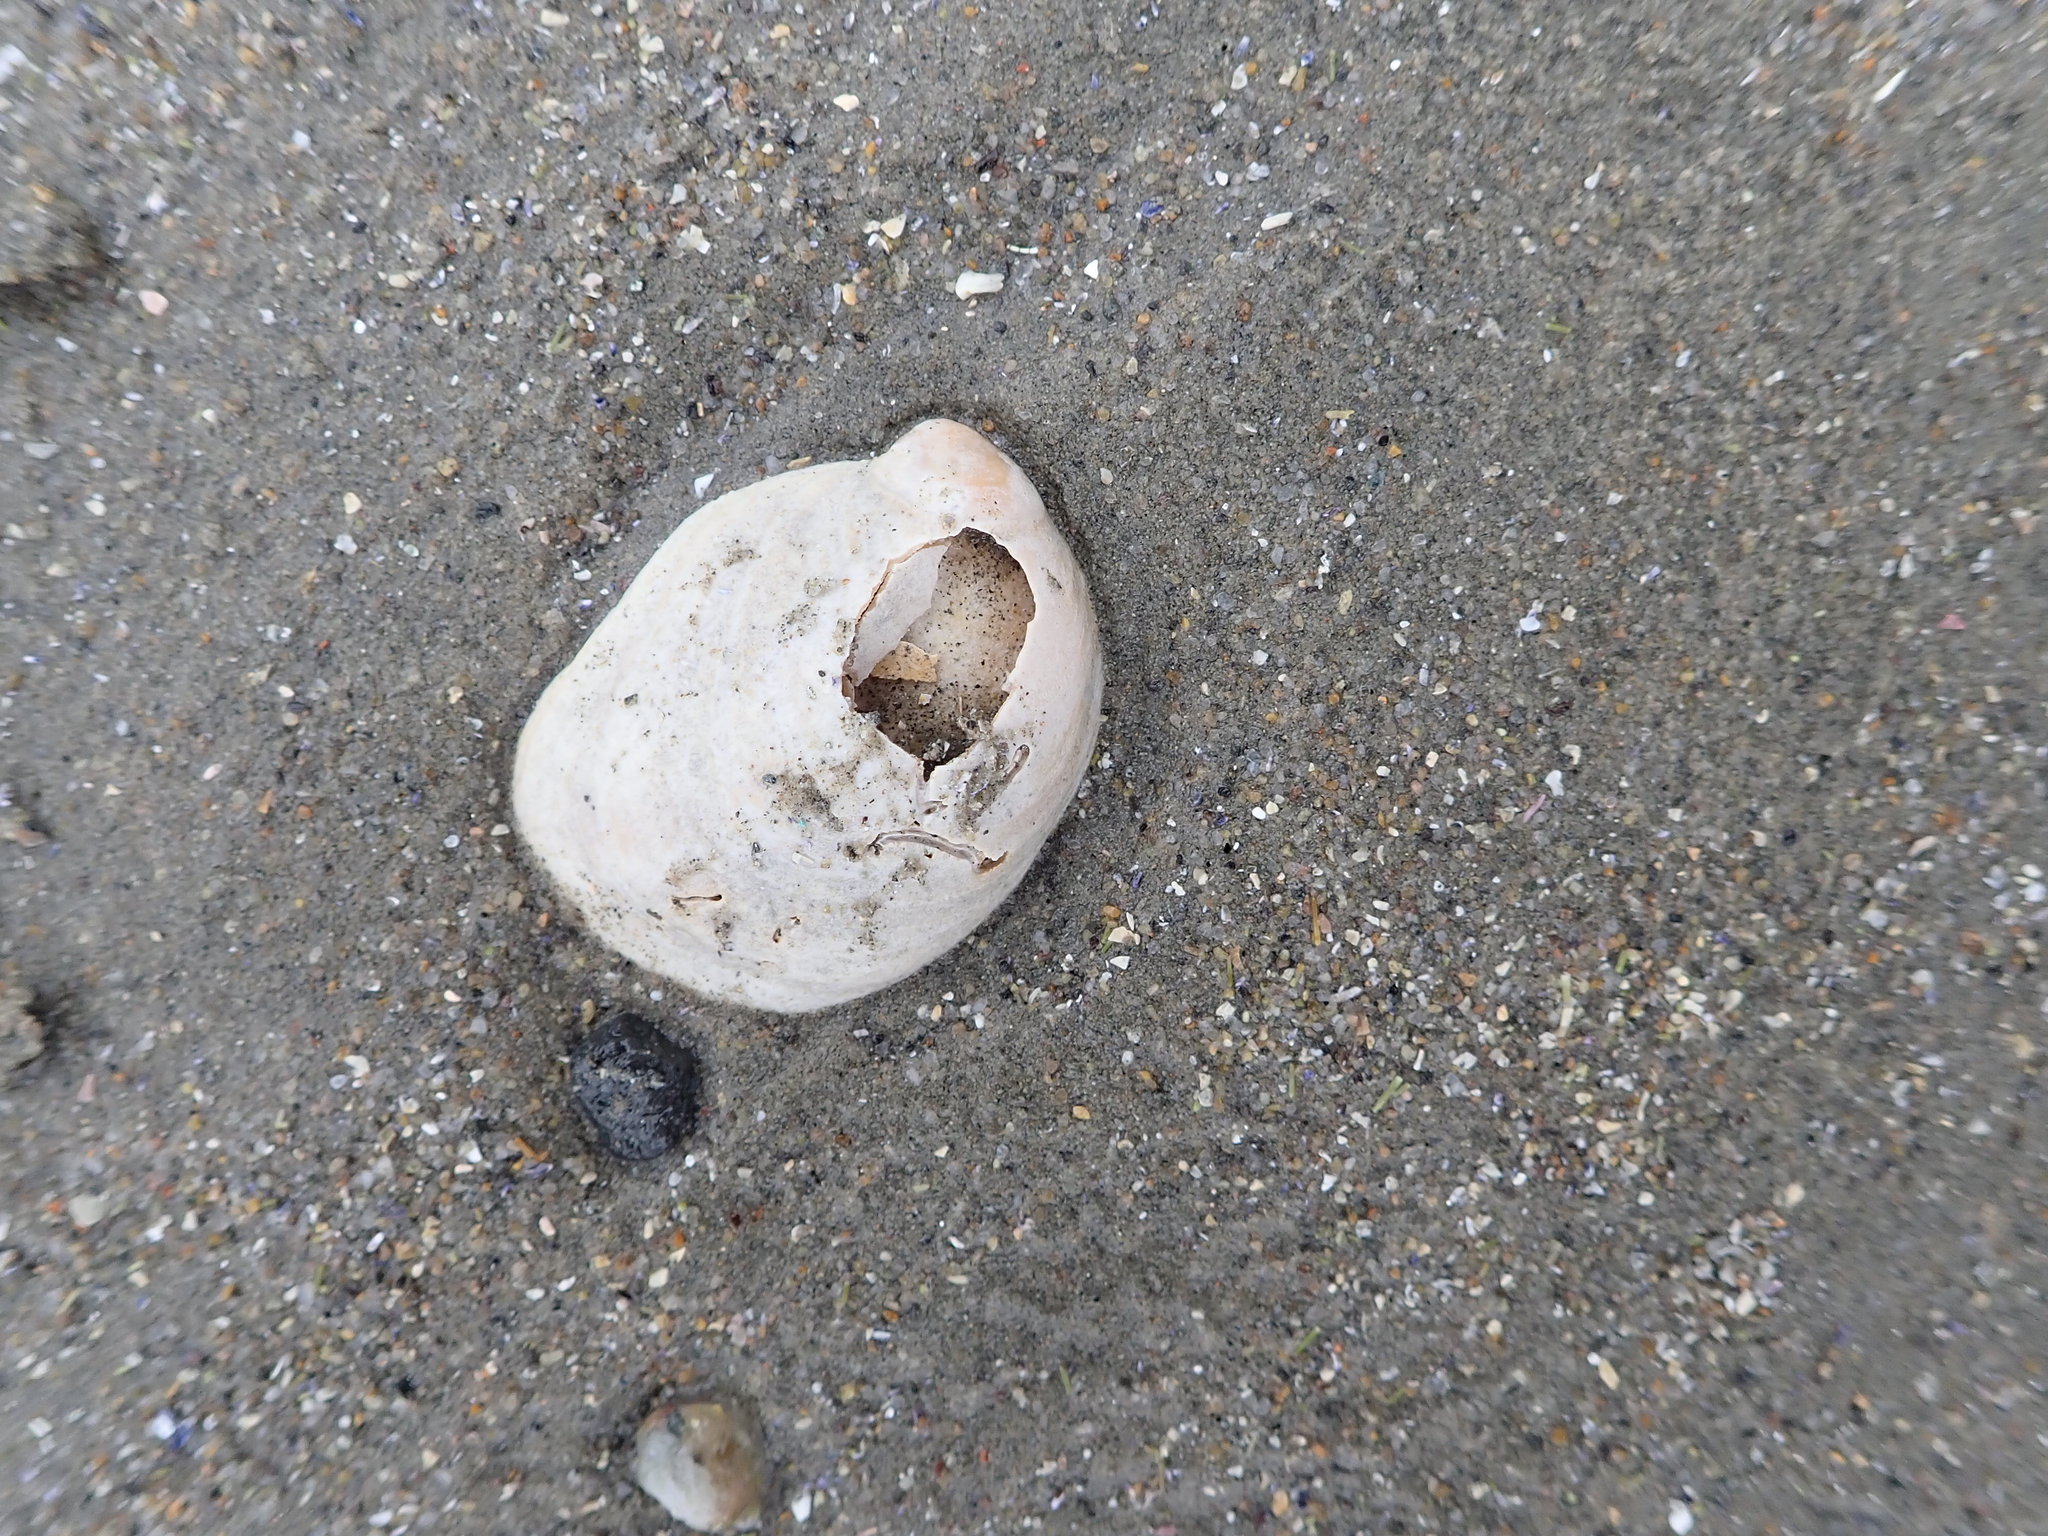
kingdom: Animalia
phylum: Mollusca
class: Gastropoda
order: Littorinimorpha
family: Calyptraeidae
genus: Crepidula
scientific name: Crepidula fornicata
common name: Slipper limpet
